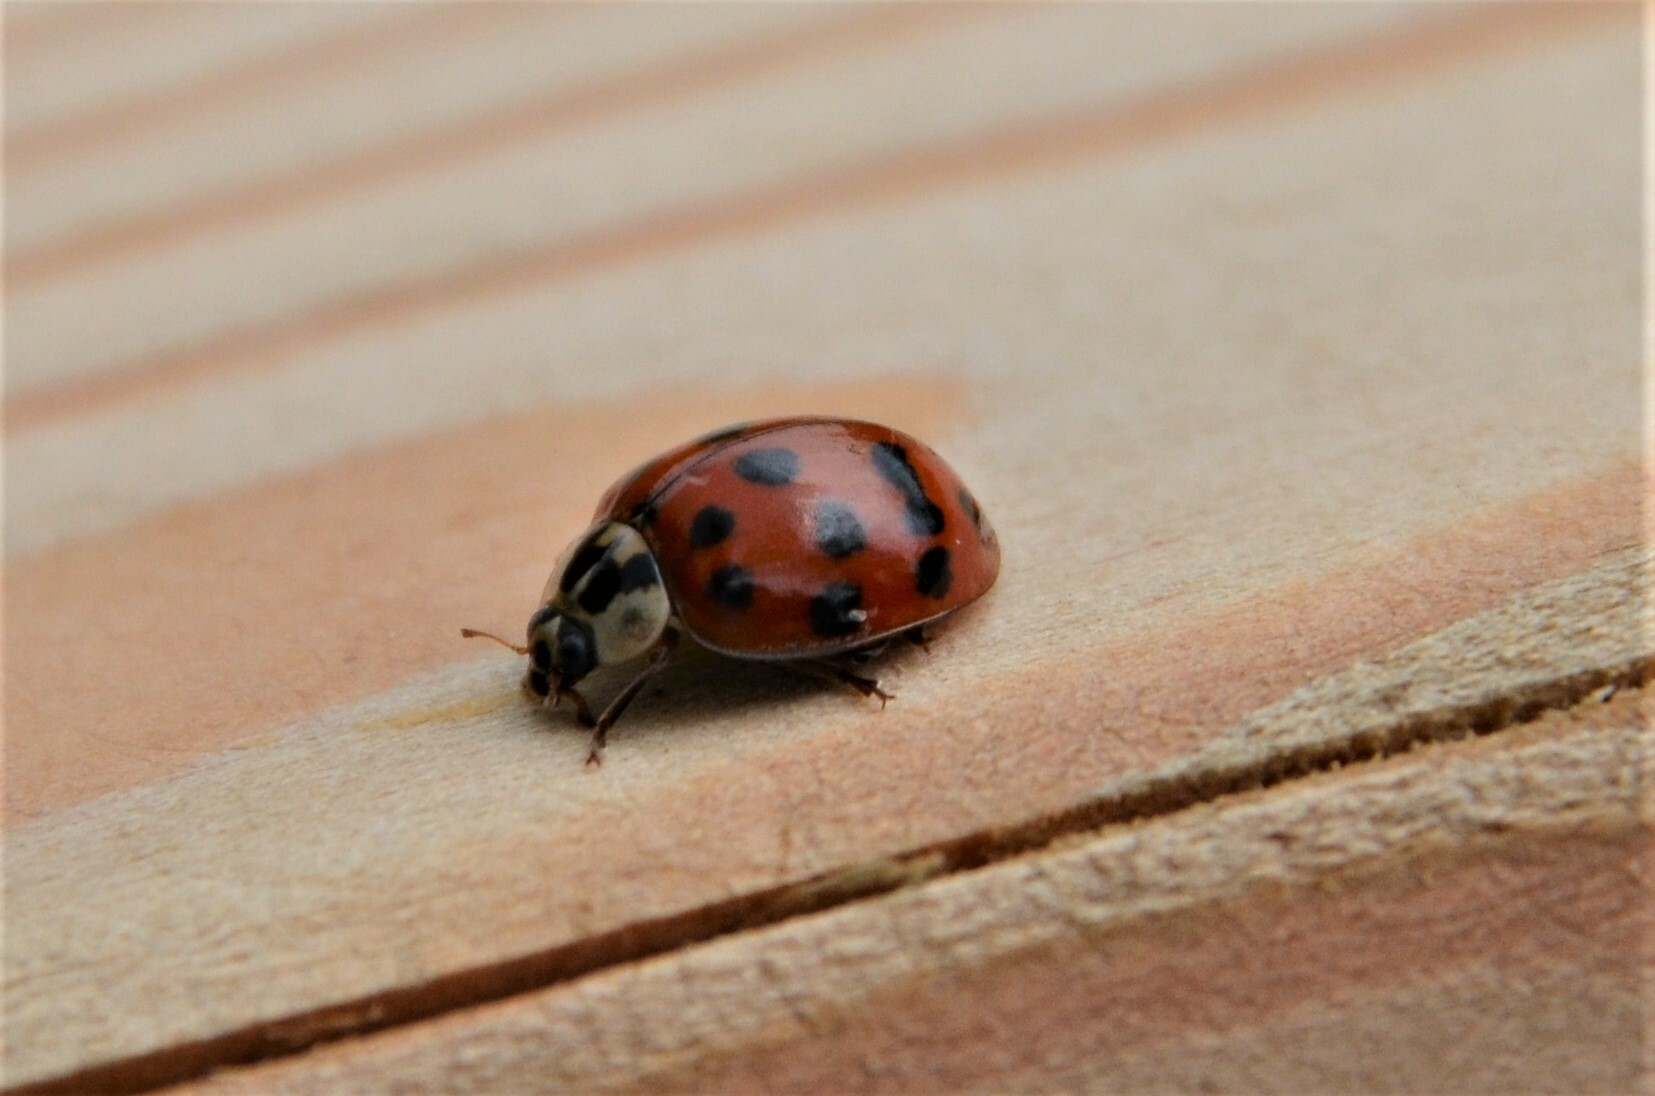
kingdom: Animalia
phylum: Arthropoda
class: Insecta
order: Coleoptera
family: Coccinellidae
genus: Harmonia
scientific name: Harmonia axyridis
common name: Harlequin ladybird
